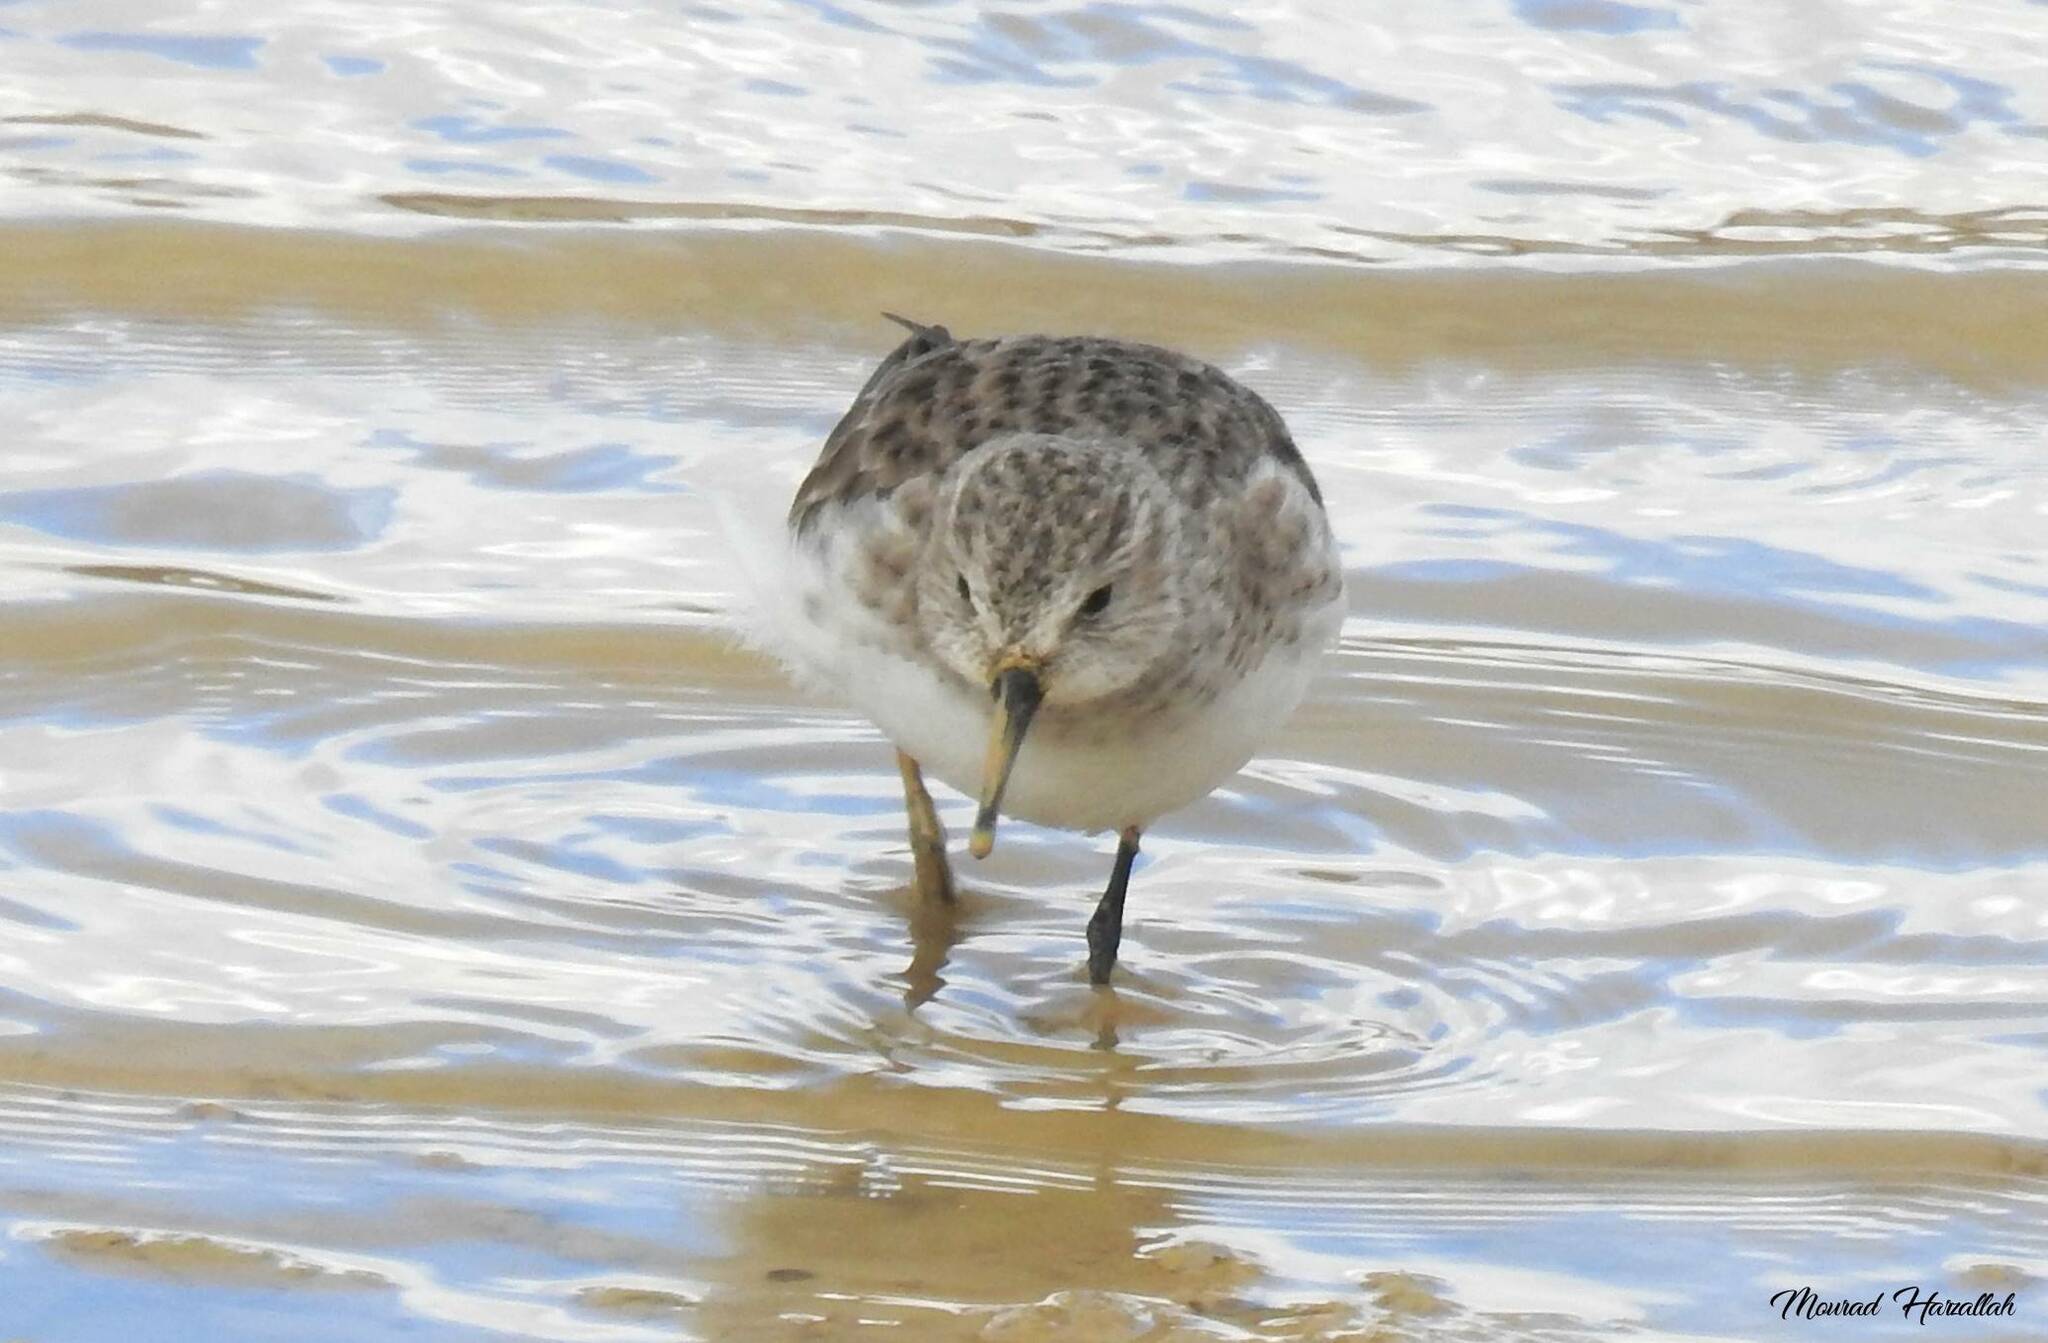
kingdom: Animalia
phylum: Chordata
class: Aves
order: Charadriiformes
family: Scolopacidae
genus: Calidris
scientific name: Calidris minuta
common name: Little stint
